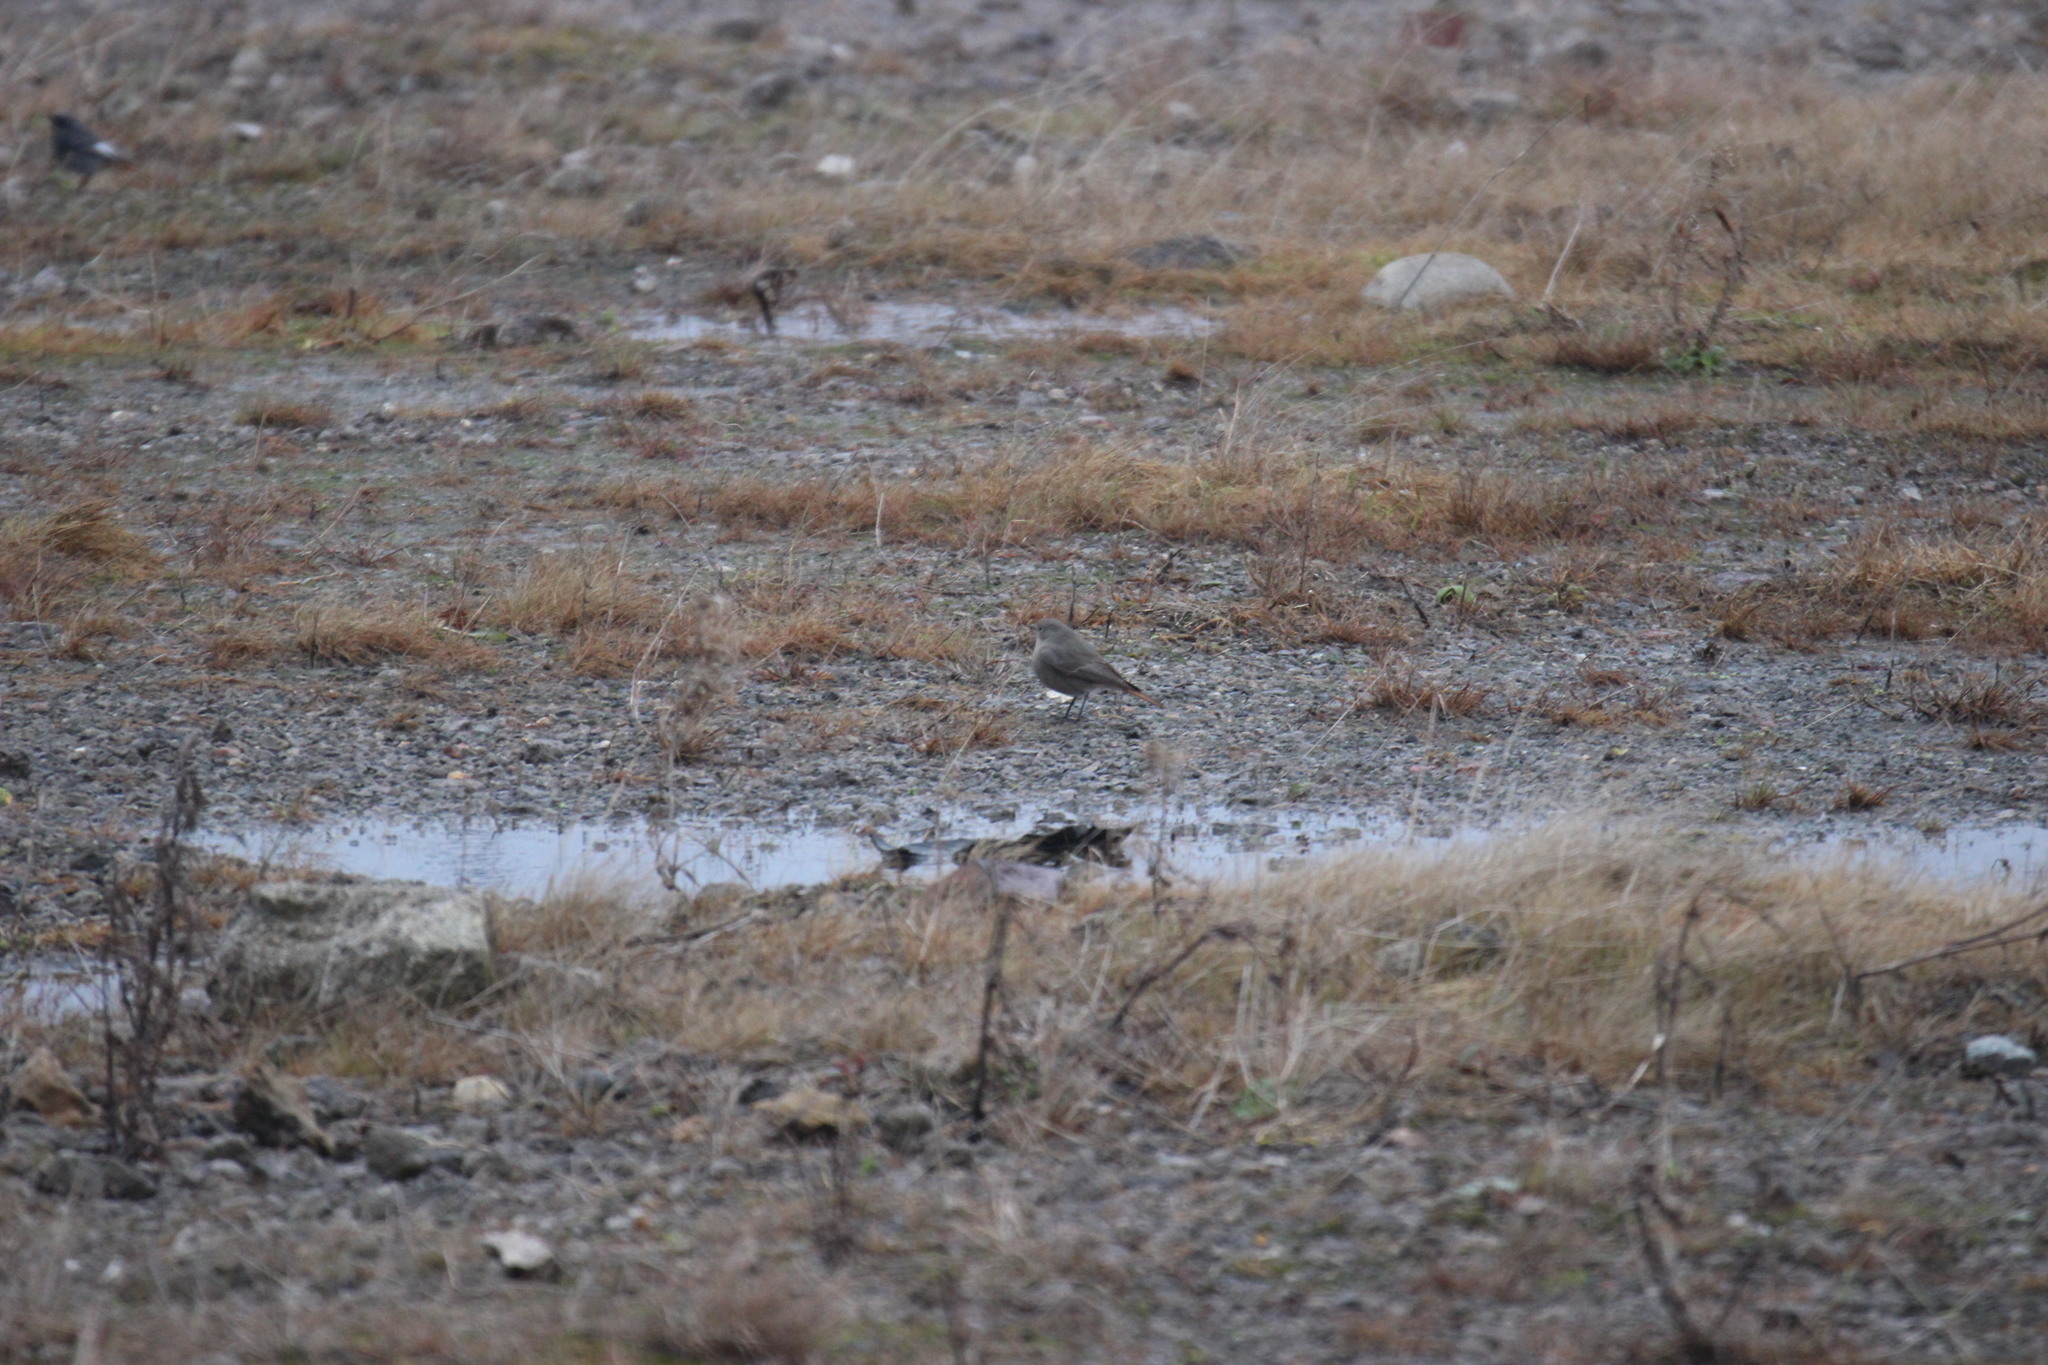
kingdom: Animalia
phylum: Chordata
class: Aves
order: Passeriformes
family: Muscicapidae
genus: Phoenicurus
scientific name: Phoenicurus ochruros
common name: Black redstart
